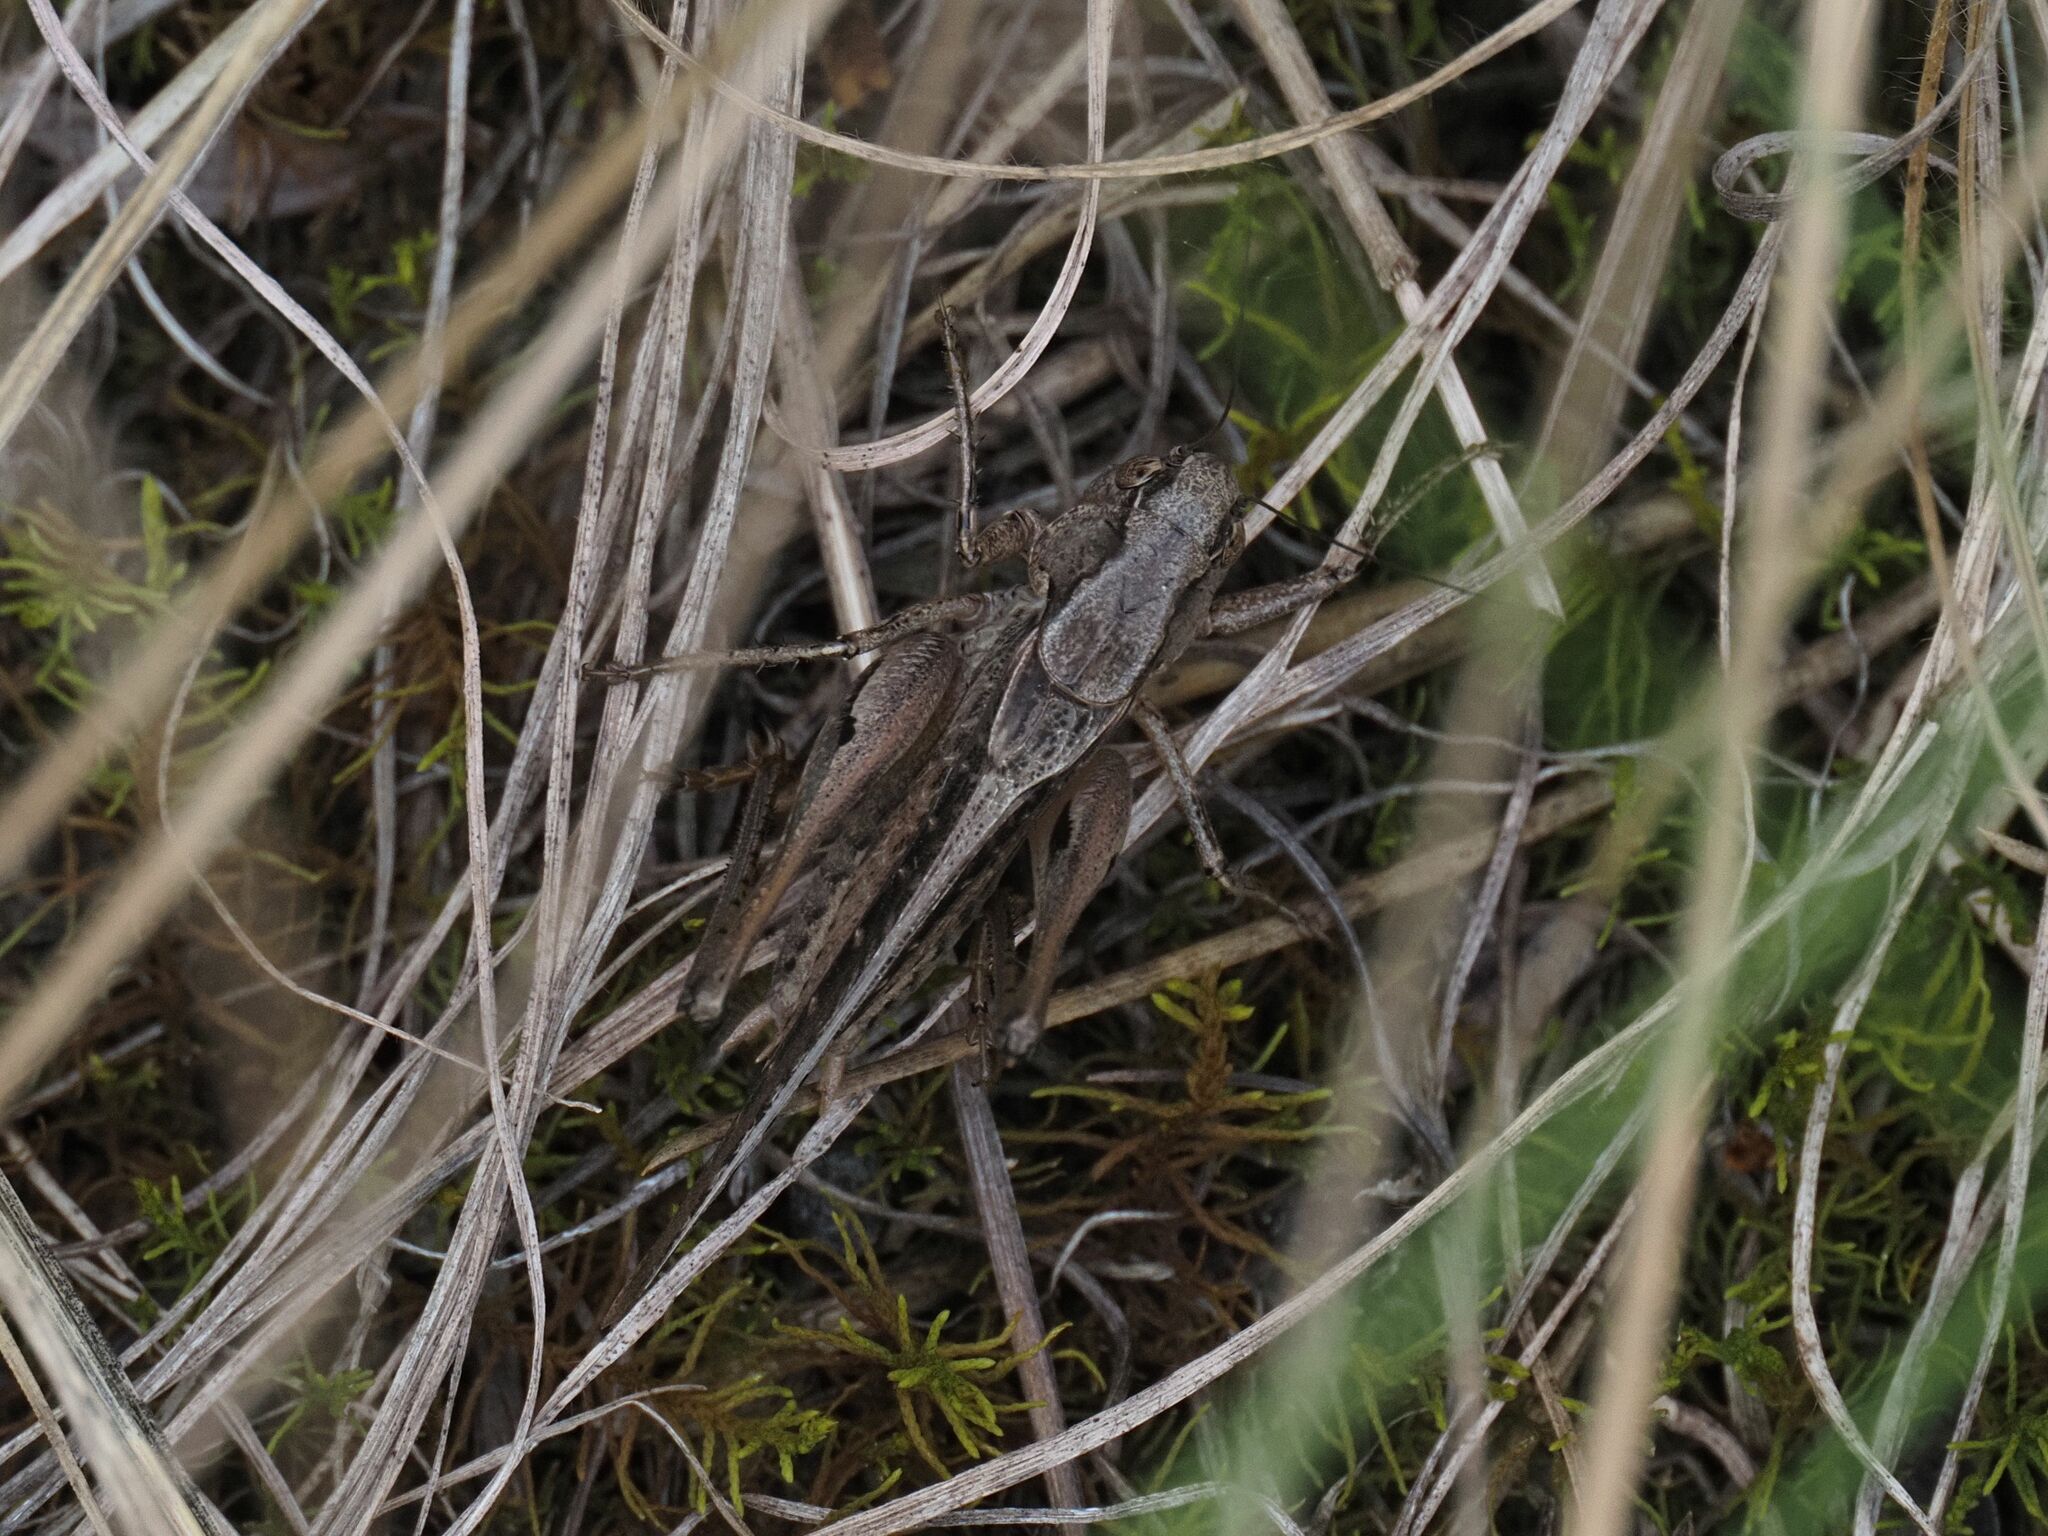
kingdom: Animalia
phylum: Arthropoda
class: Insecta
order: Orthoptera
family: Tettigoniidae
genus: Platycleis
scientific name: Platycleis grisea
